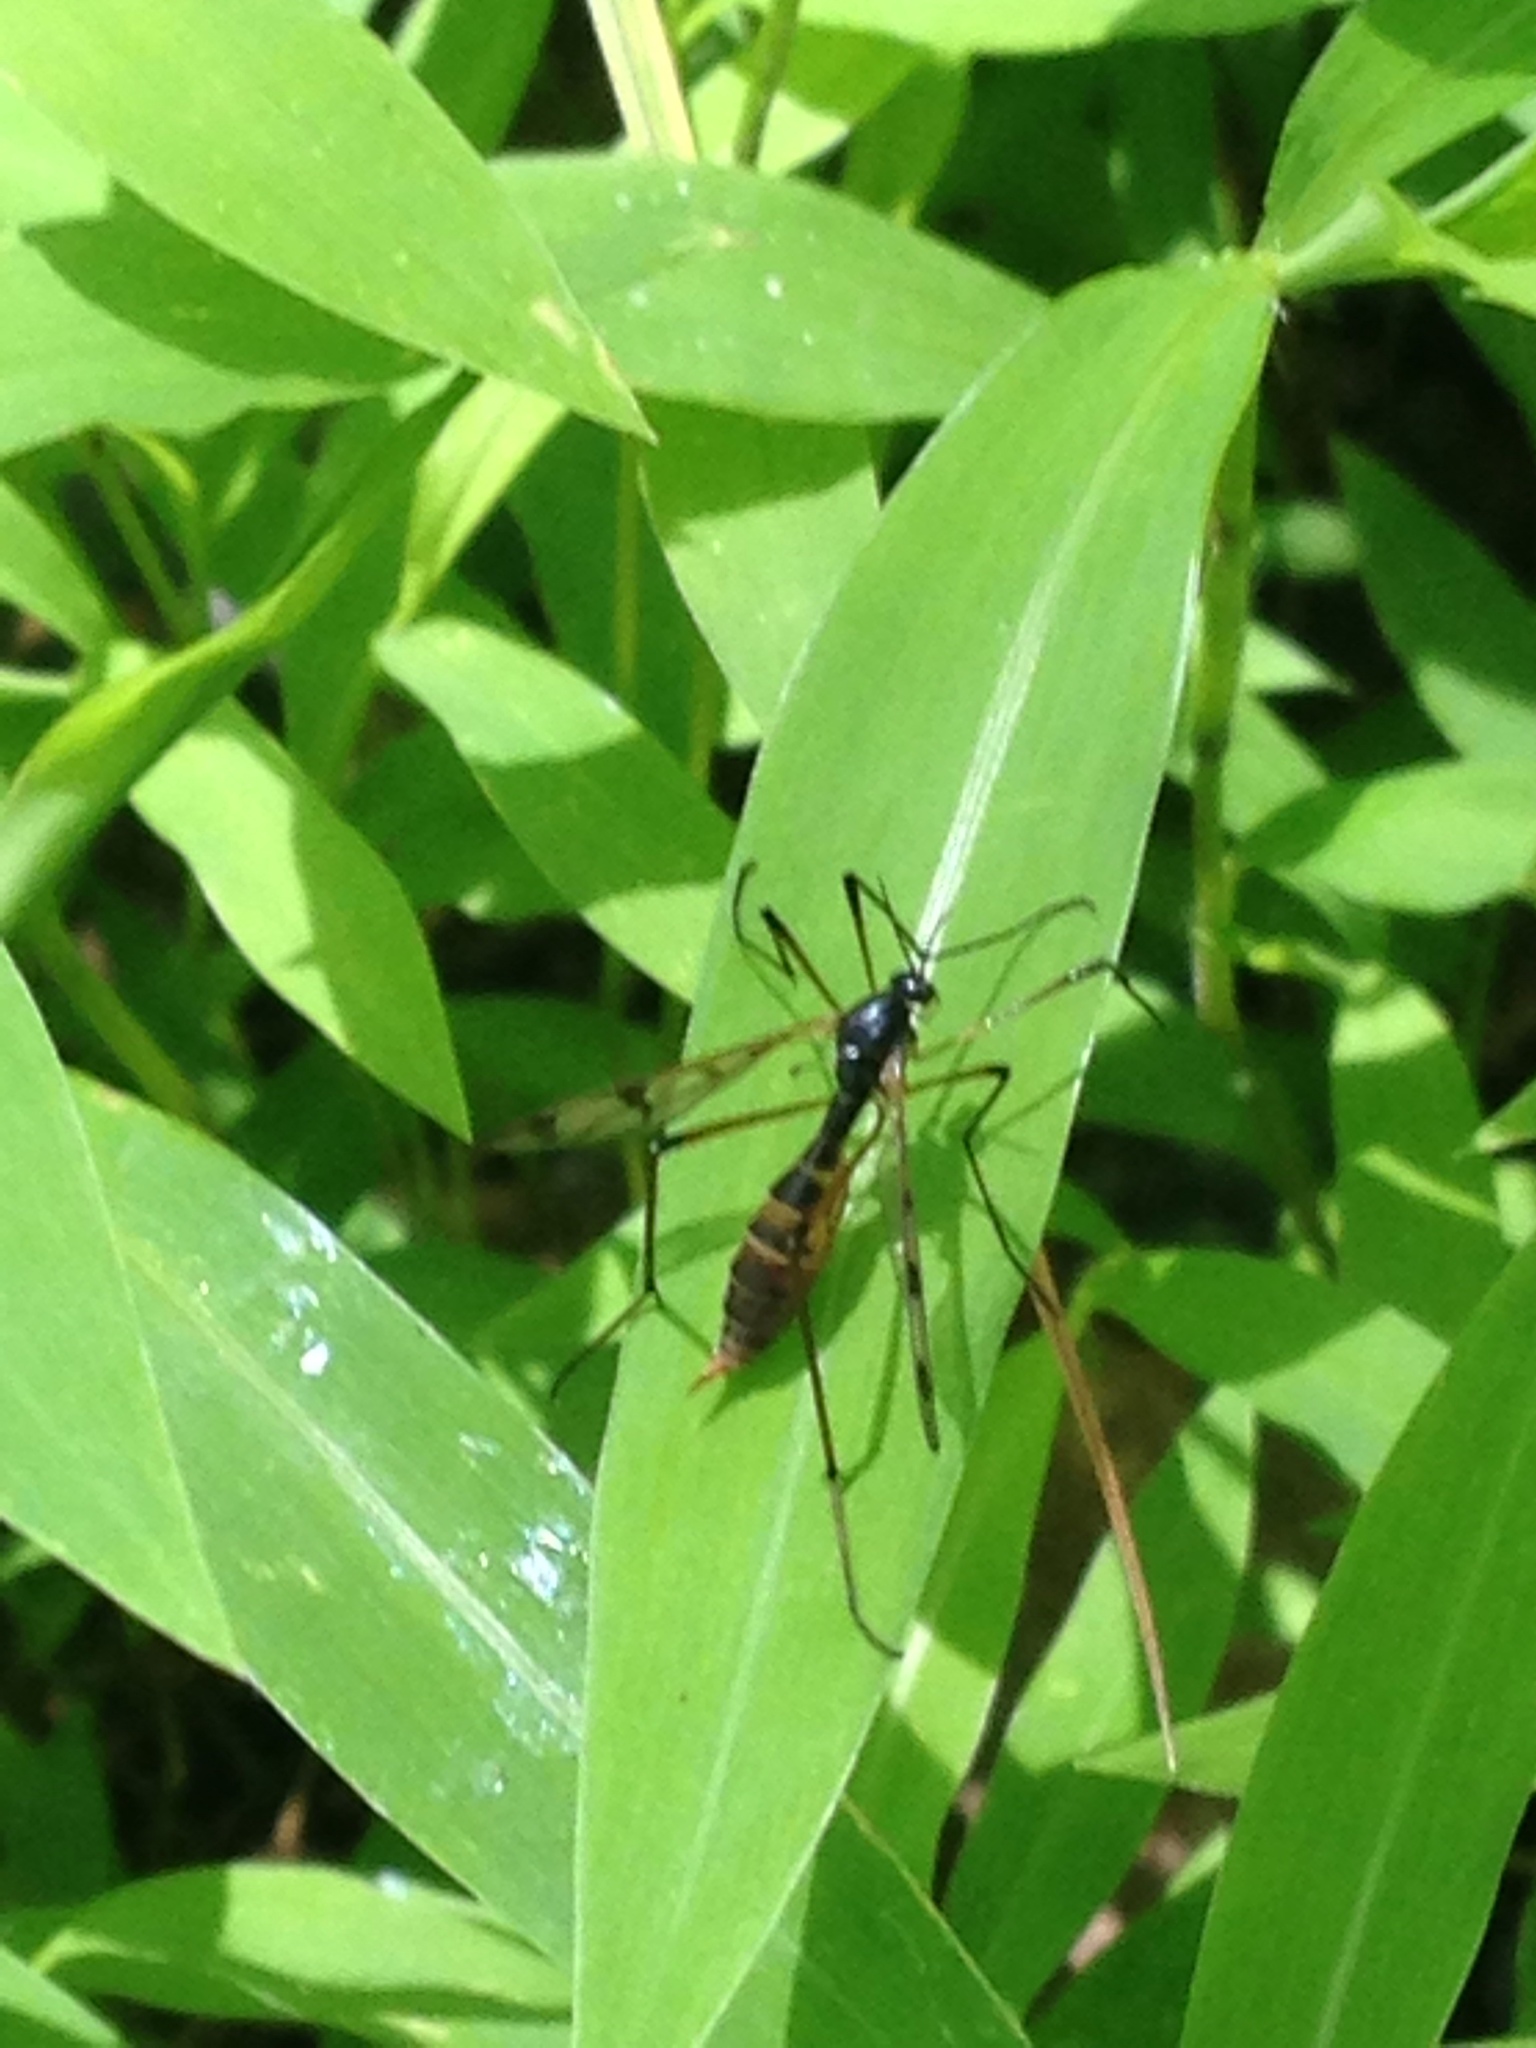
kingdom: Animalia
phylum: Arthropoda
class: Insecta
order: Diptera
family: Ptychopteridae
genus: Ptychoptera
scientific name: Ptychoptera quadrifasciata
